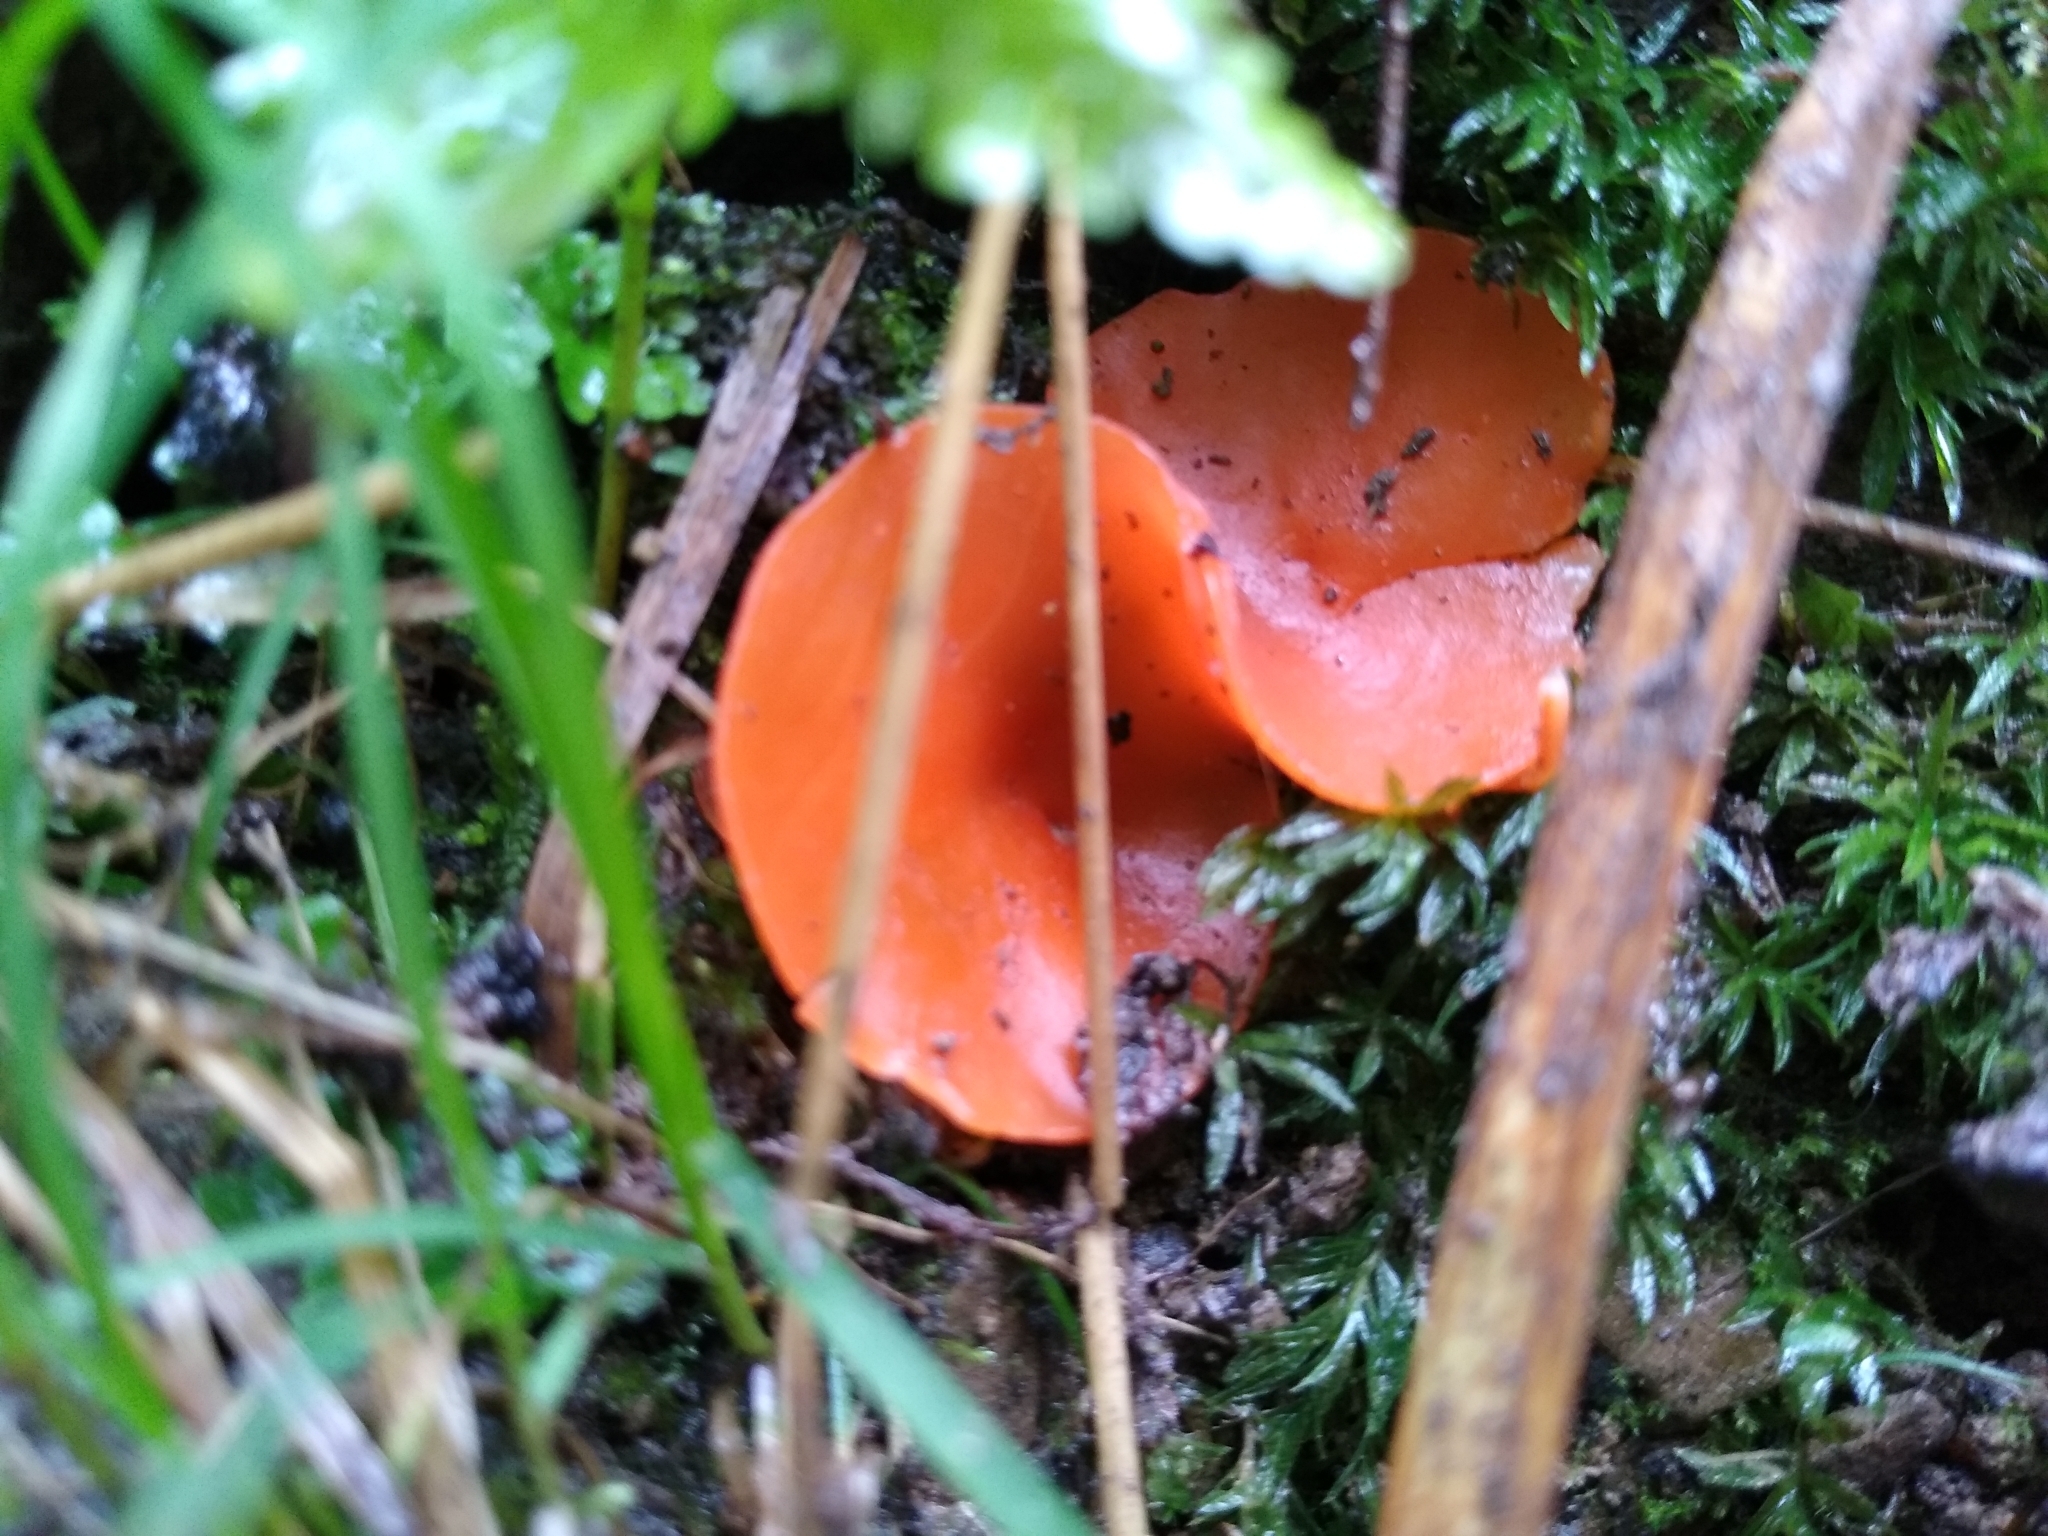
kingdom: Fungi
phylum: Ascomycota
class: Pezizomycetes
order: Pezizales
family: Pyronemataceae
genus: Aleuria
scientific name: Aleuria aurantia
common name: Orange peel fungus
